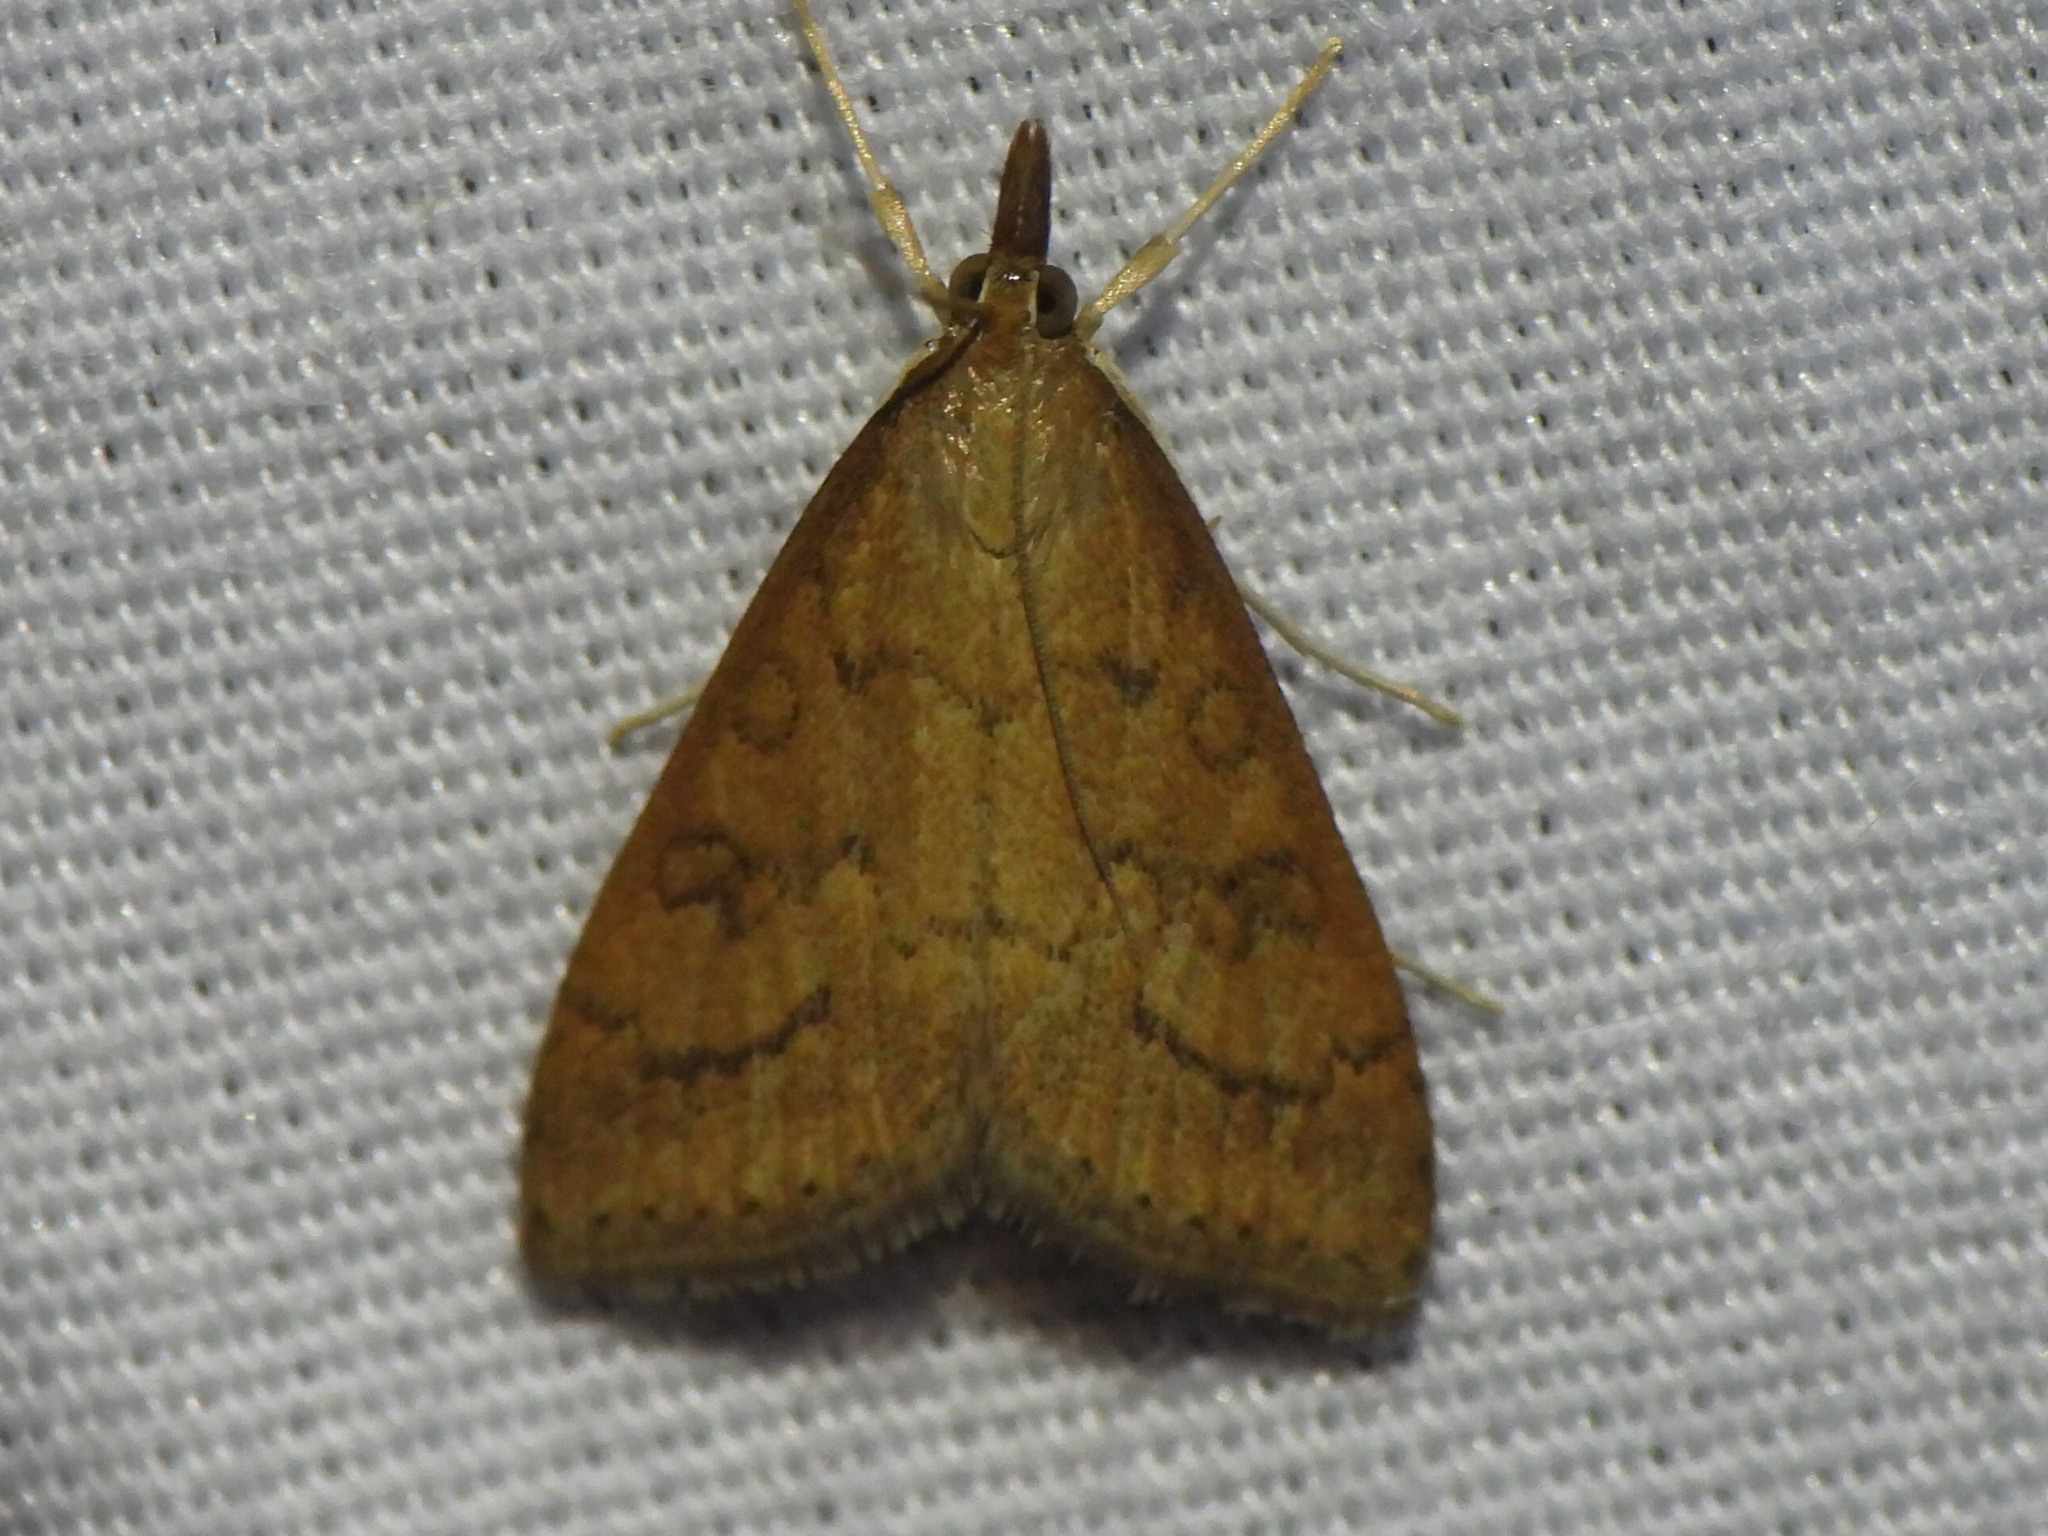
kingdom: Animalia
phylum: Arthropoda
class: Insecta
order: Lepidoptera
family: Crambidae
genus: Udea
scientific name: Udea rubigalis
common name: Celery leaftier moth
